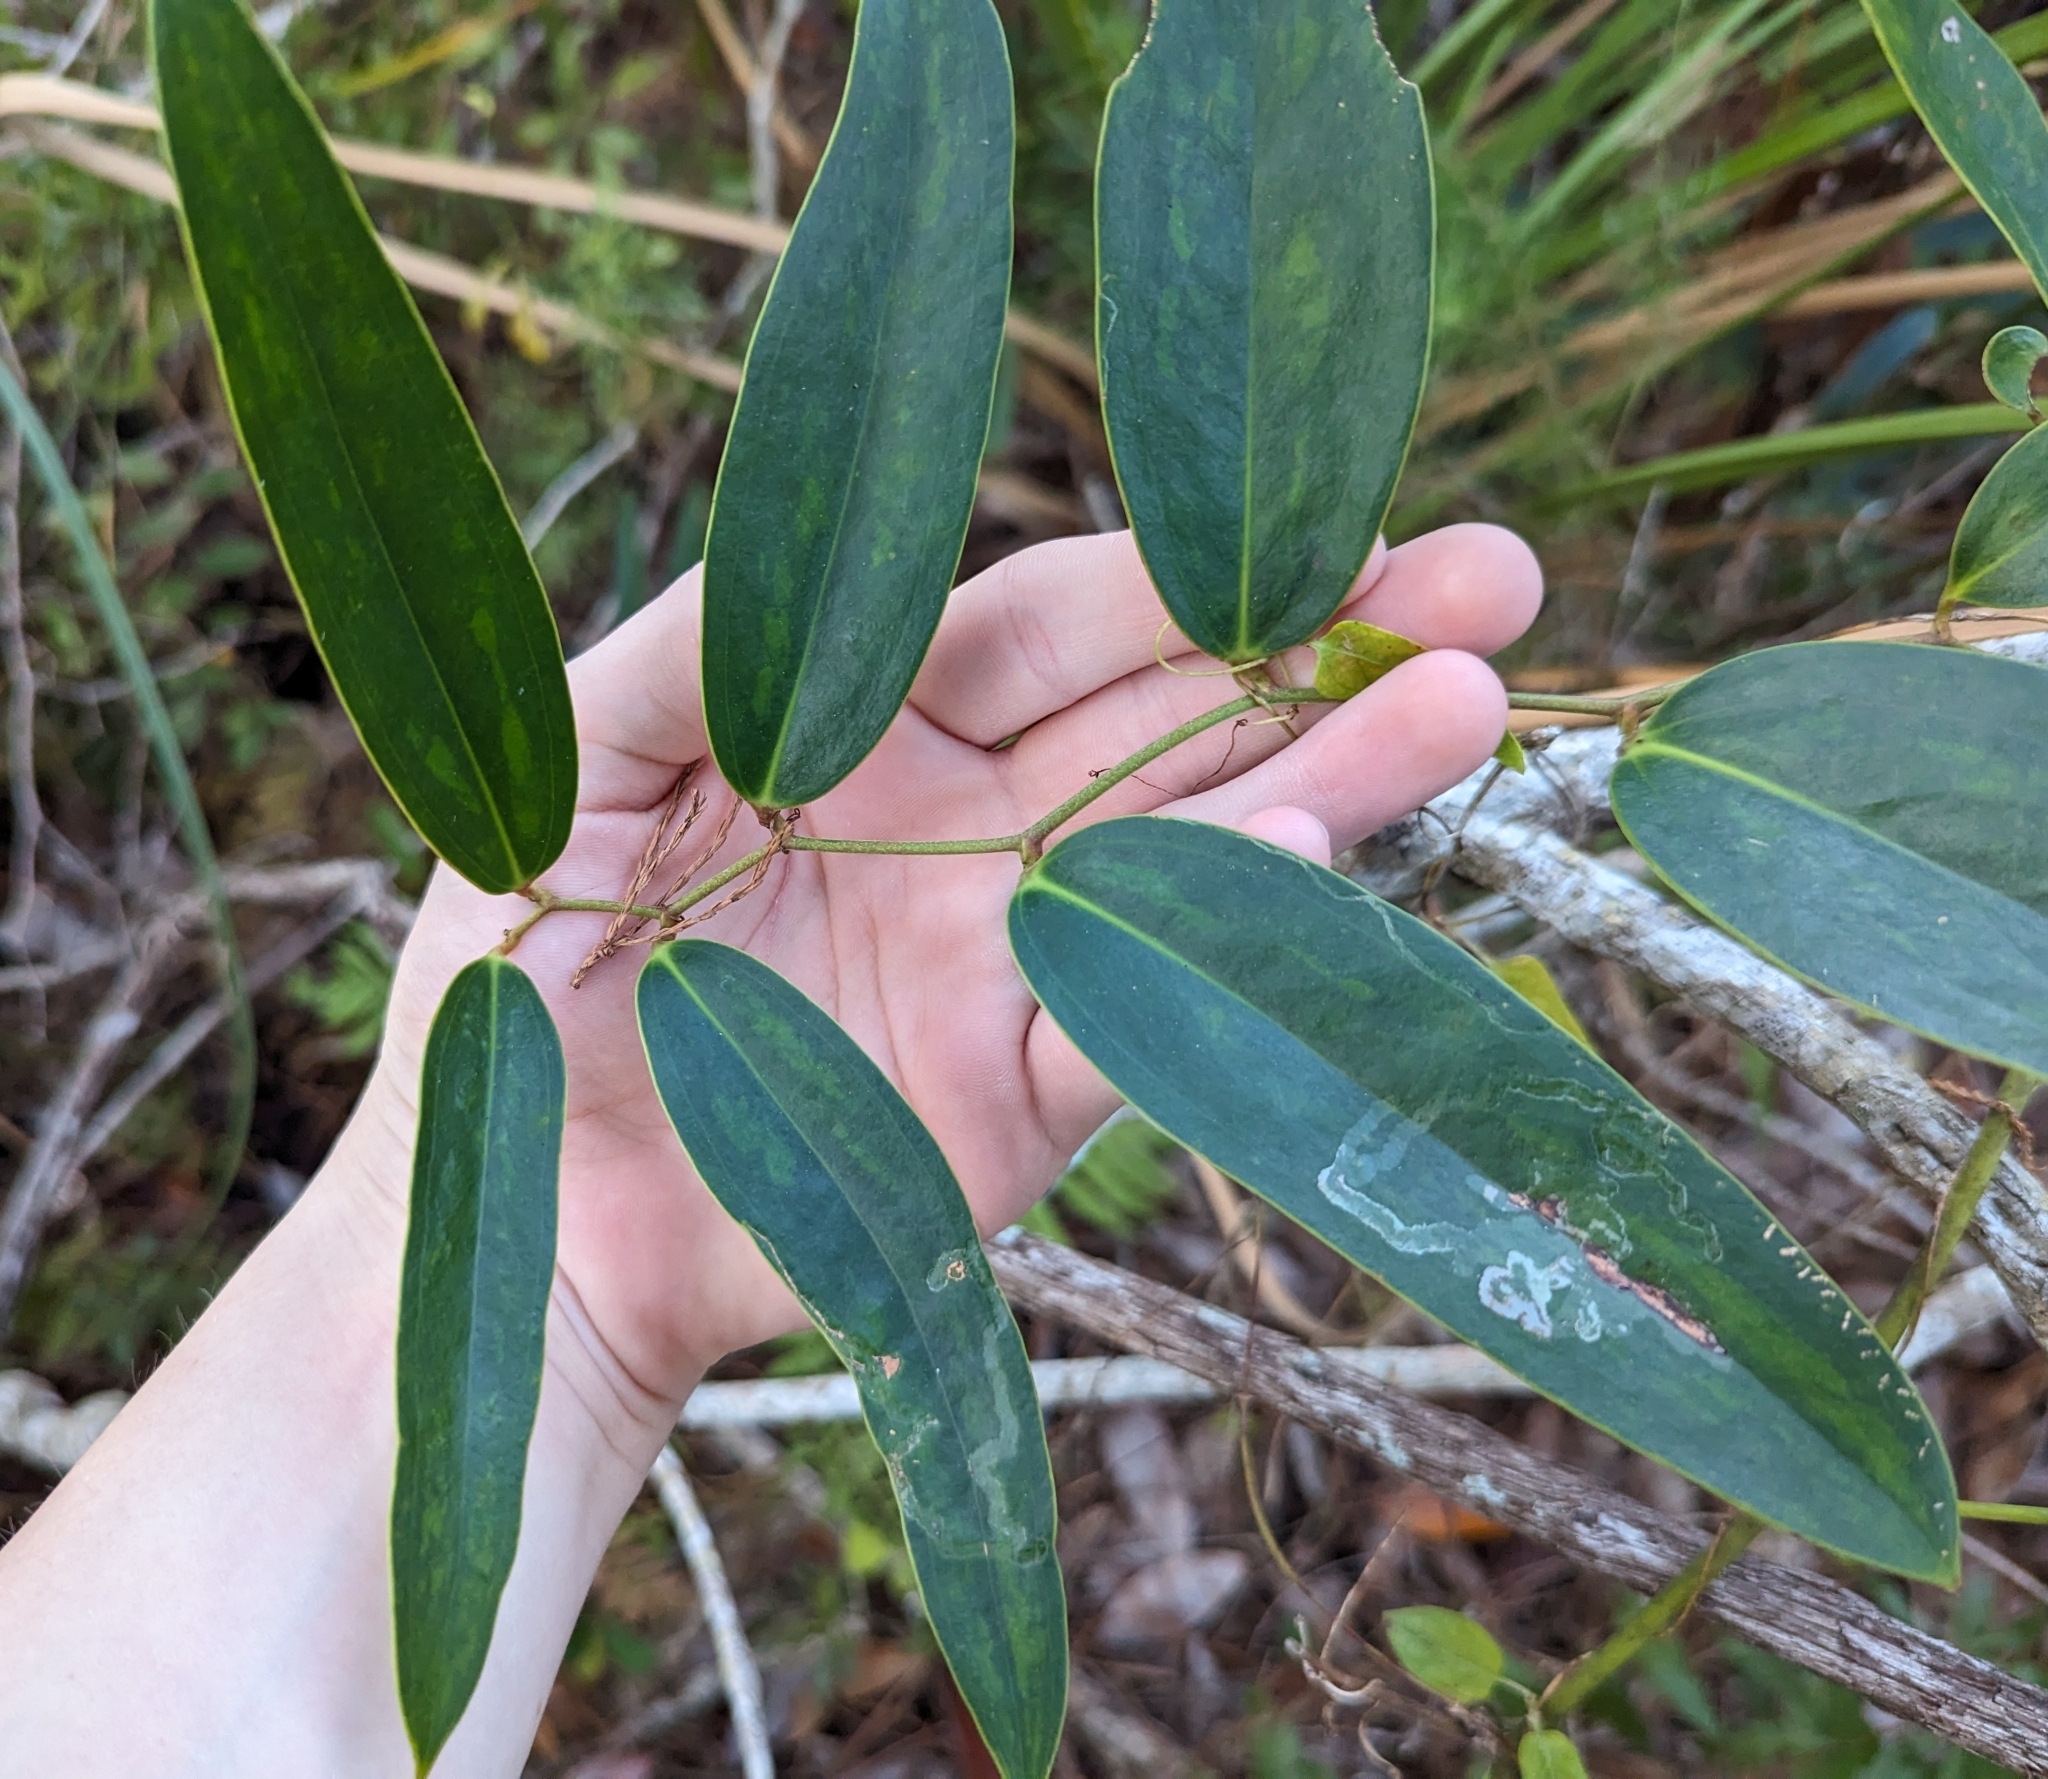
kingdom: Plantae
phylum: Tracheophyta
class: Liliopsida
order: Liliales
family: Smilacaceae
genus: Smilax
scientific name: Smilax laurifolia
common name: Bamboovine
